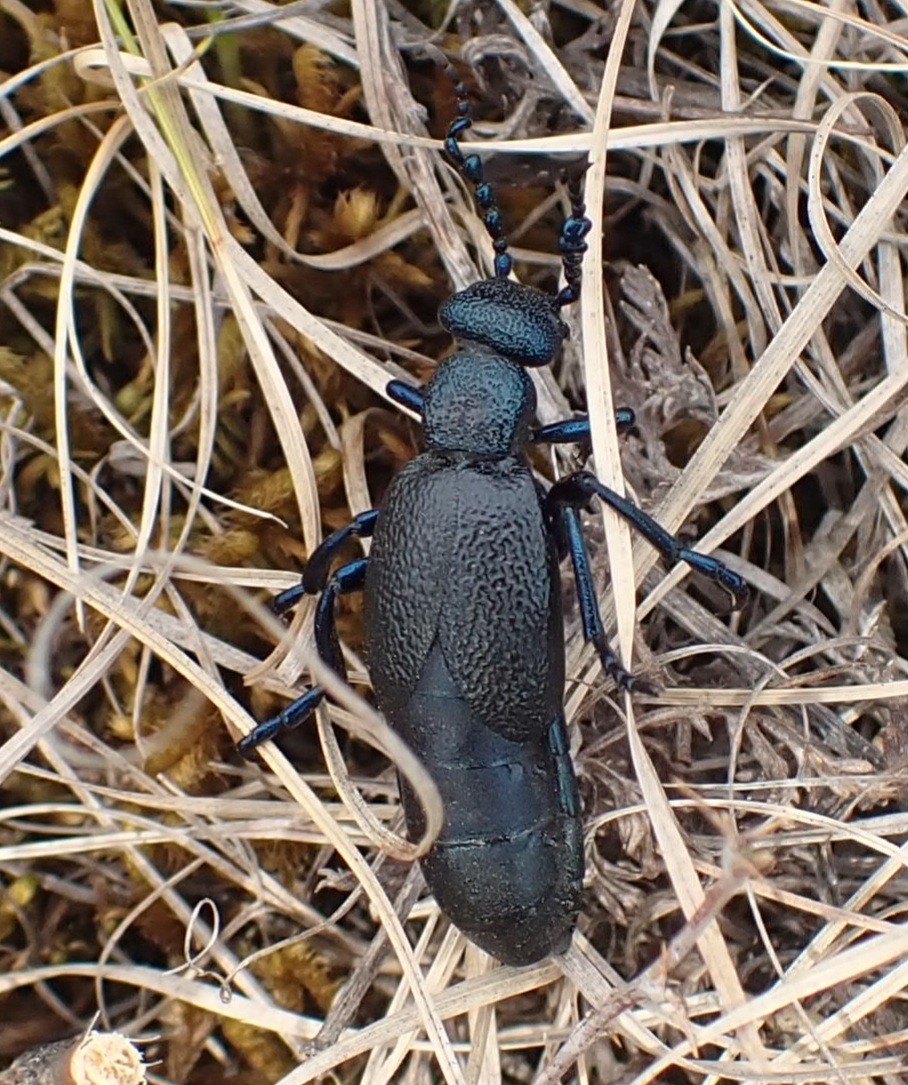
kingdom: Animalia
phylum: Arthropoda
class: Insecta
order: Coleoptera
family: Meloidae
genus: Meloe
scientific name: Meloe proscarabaeus
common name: Black oil-beetle
